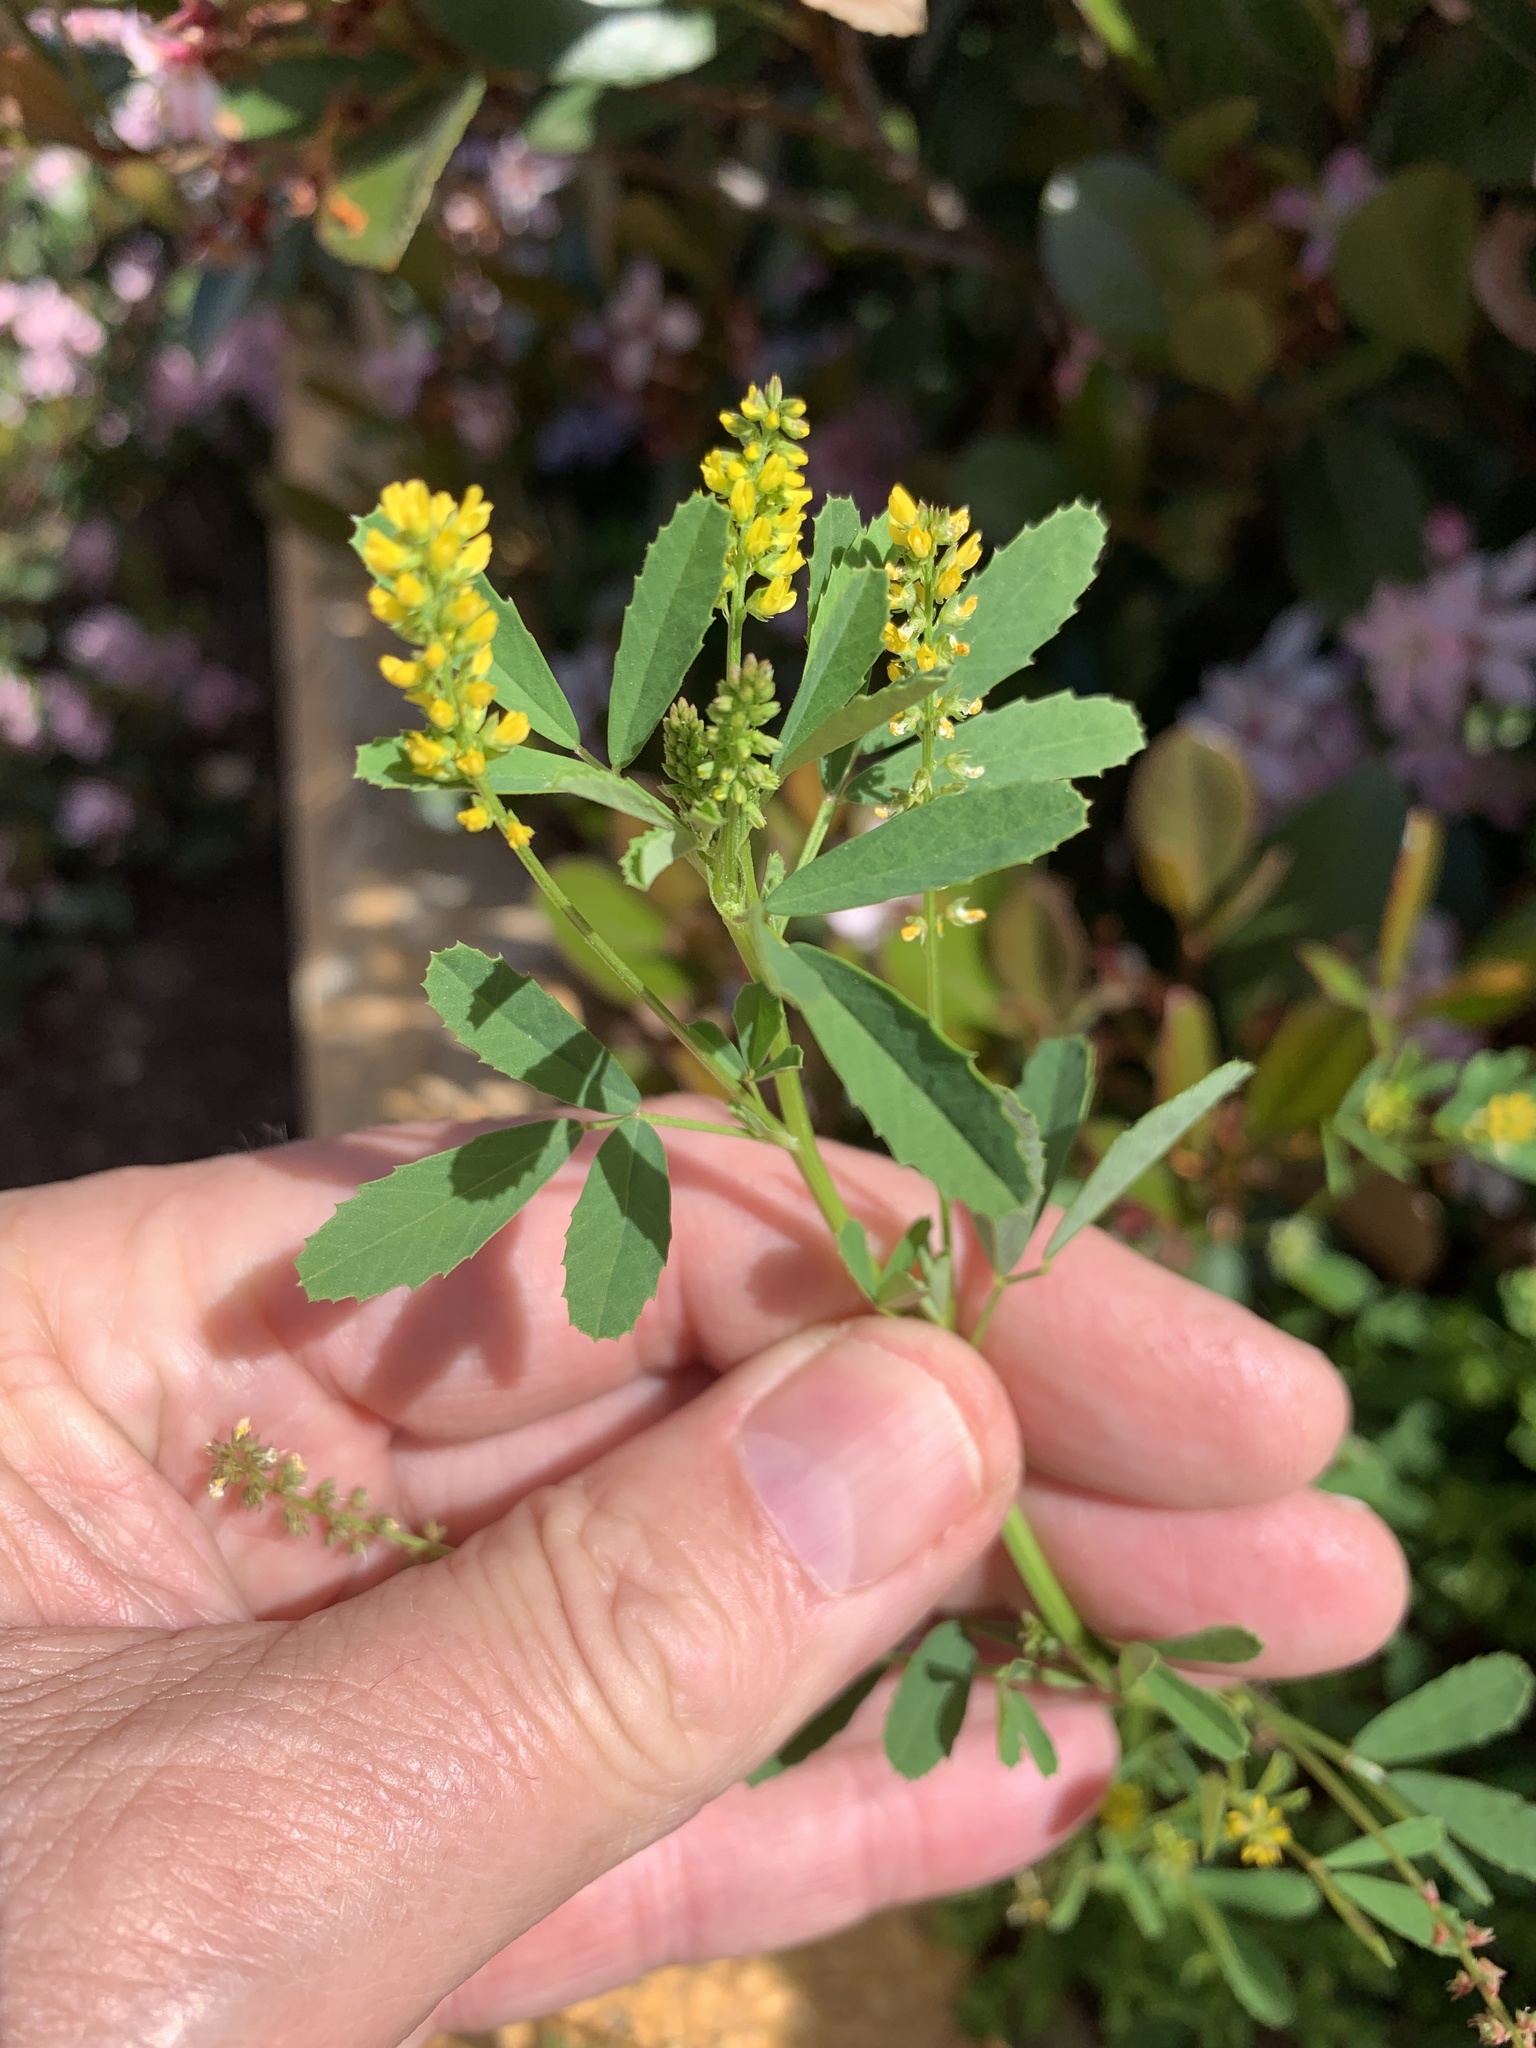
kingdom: Plantae
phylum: Tracheophyta
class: Magnoliopsida
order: Fabales
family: Fabaceae
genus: Melilotus
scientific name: Melilotus indicus
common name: Small melilot
